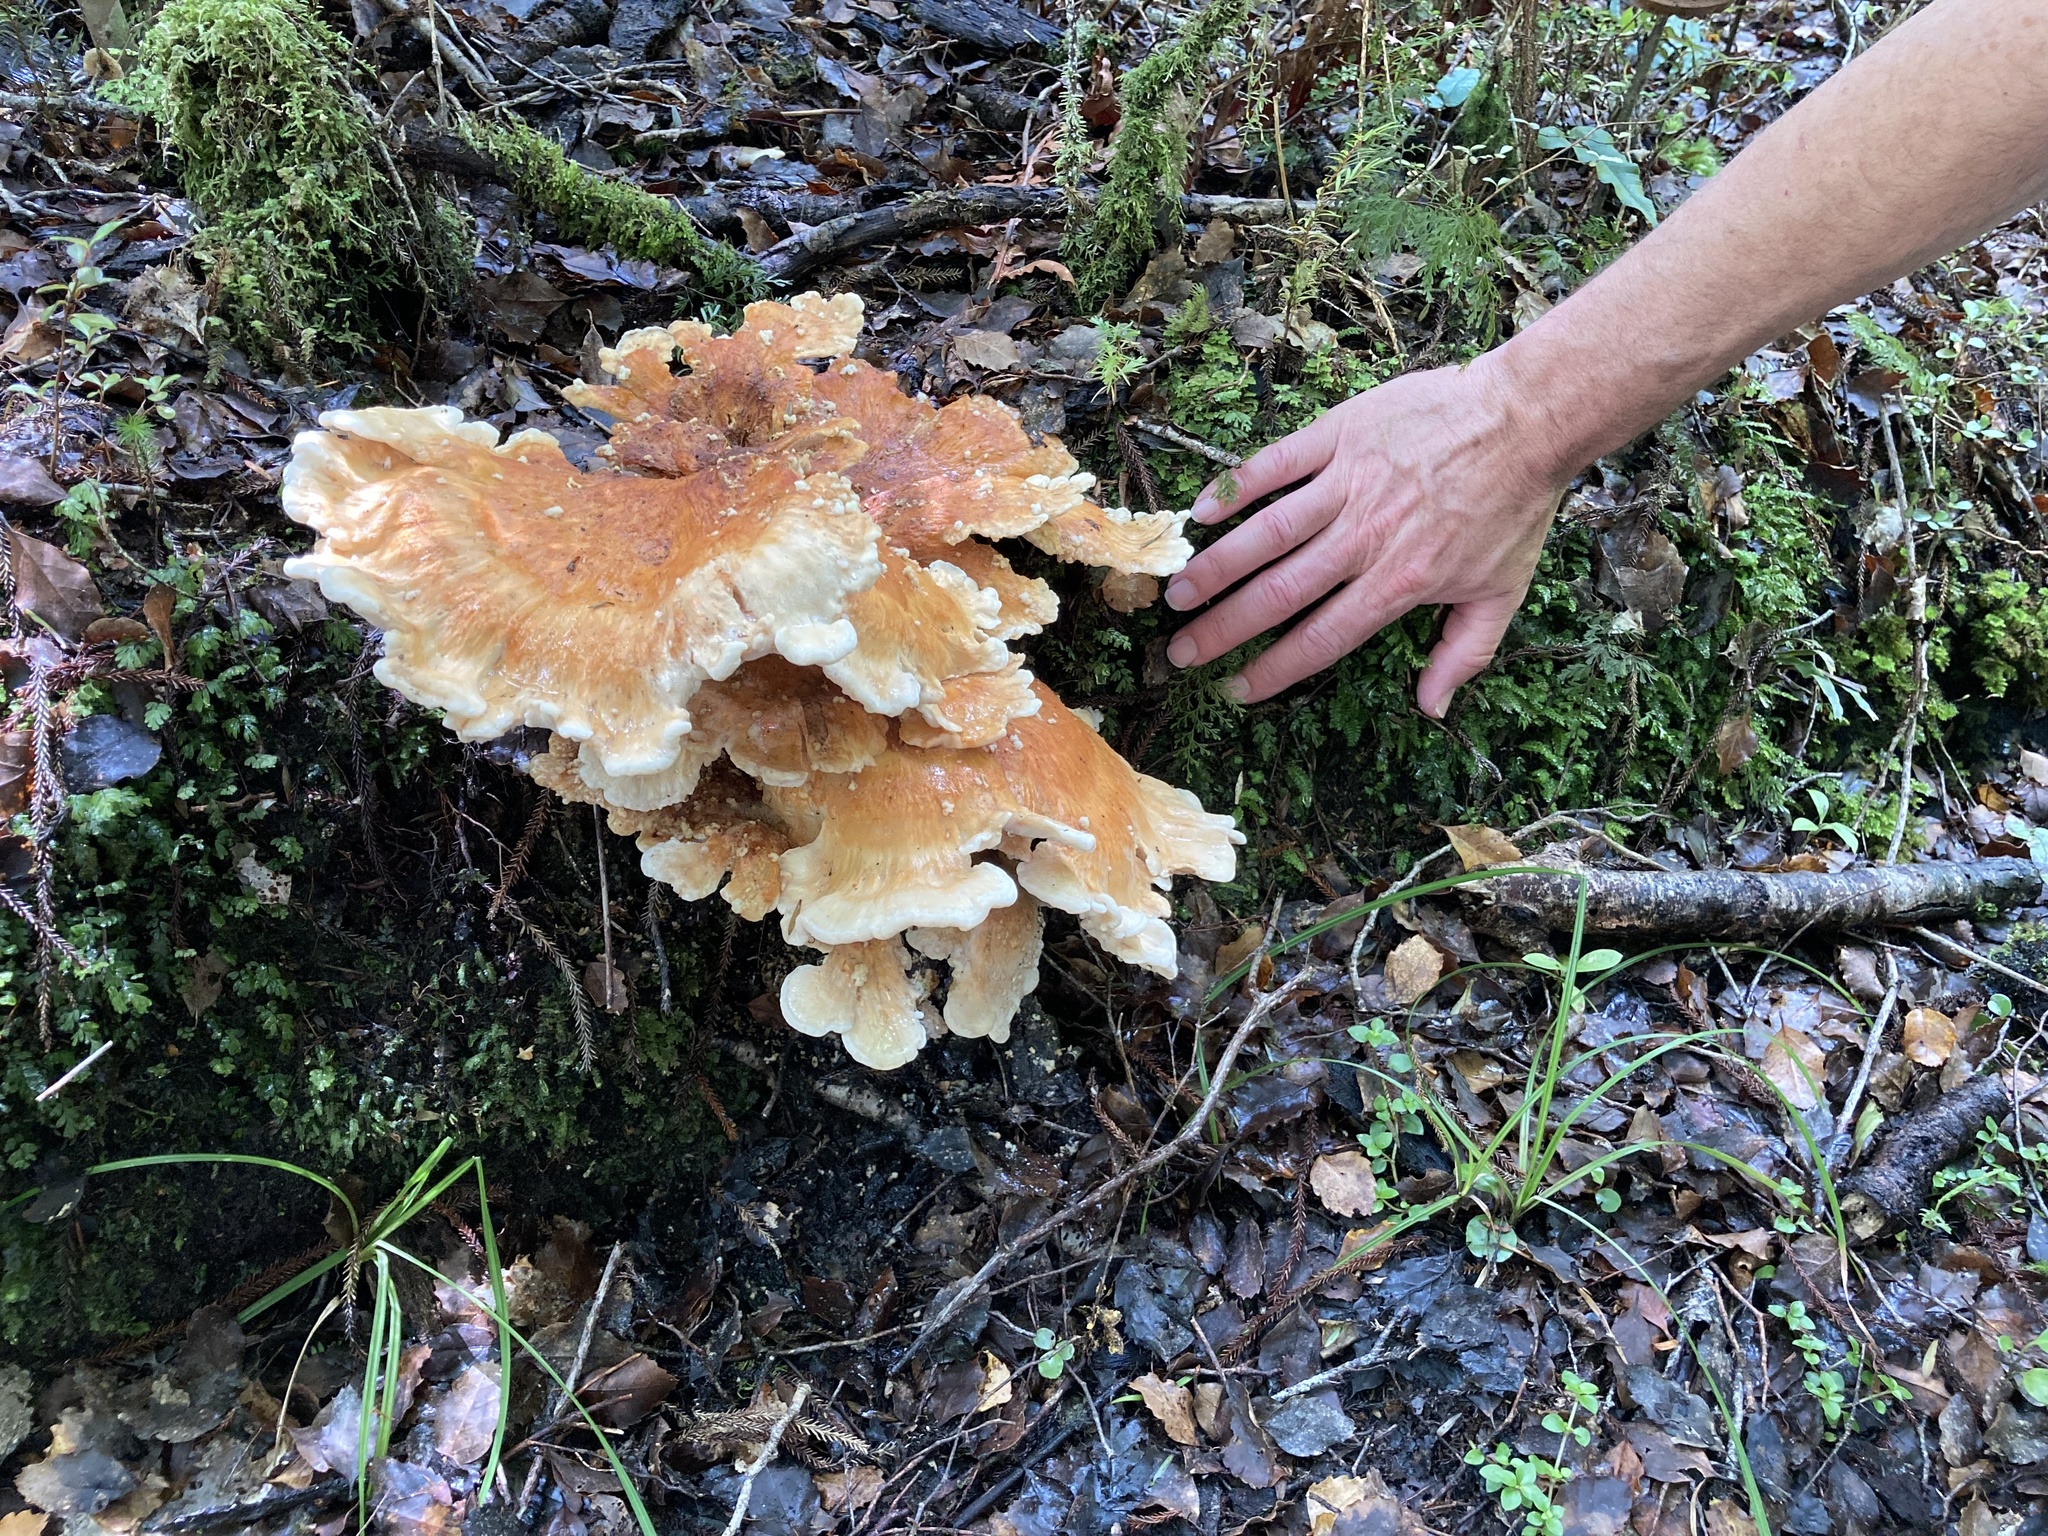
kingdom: Fungi
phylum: Basidiomycota
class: Agaricomycetes
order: Russulales
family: Bondarzewiaceae
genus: Bondarzewia
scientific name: Bondarzewia kirkii
